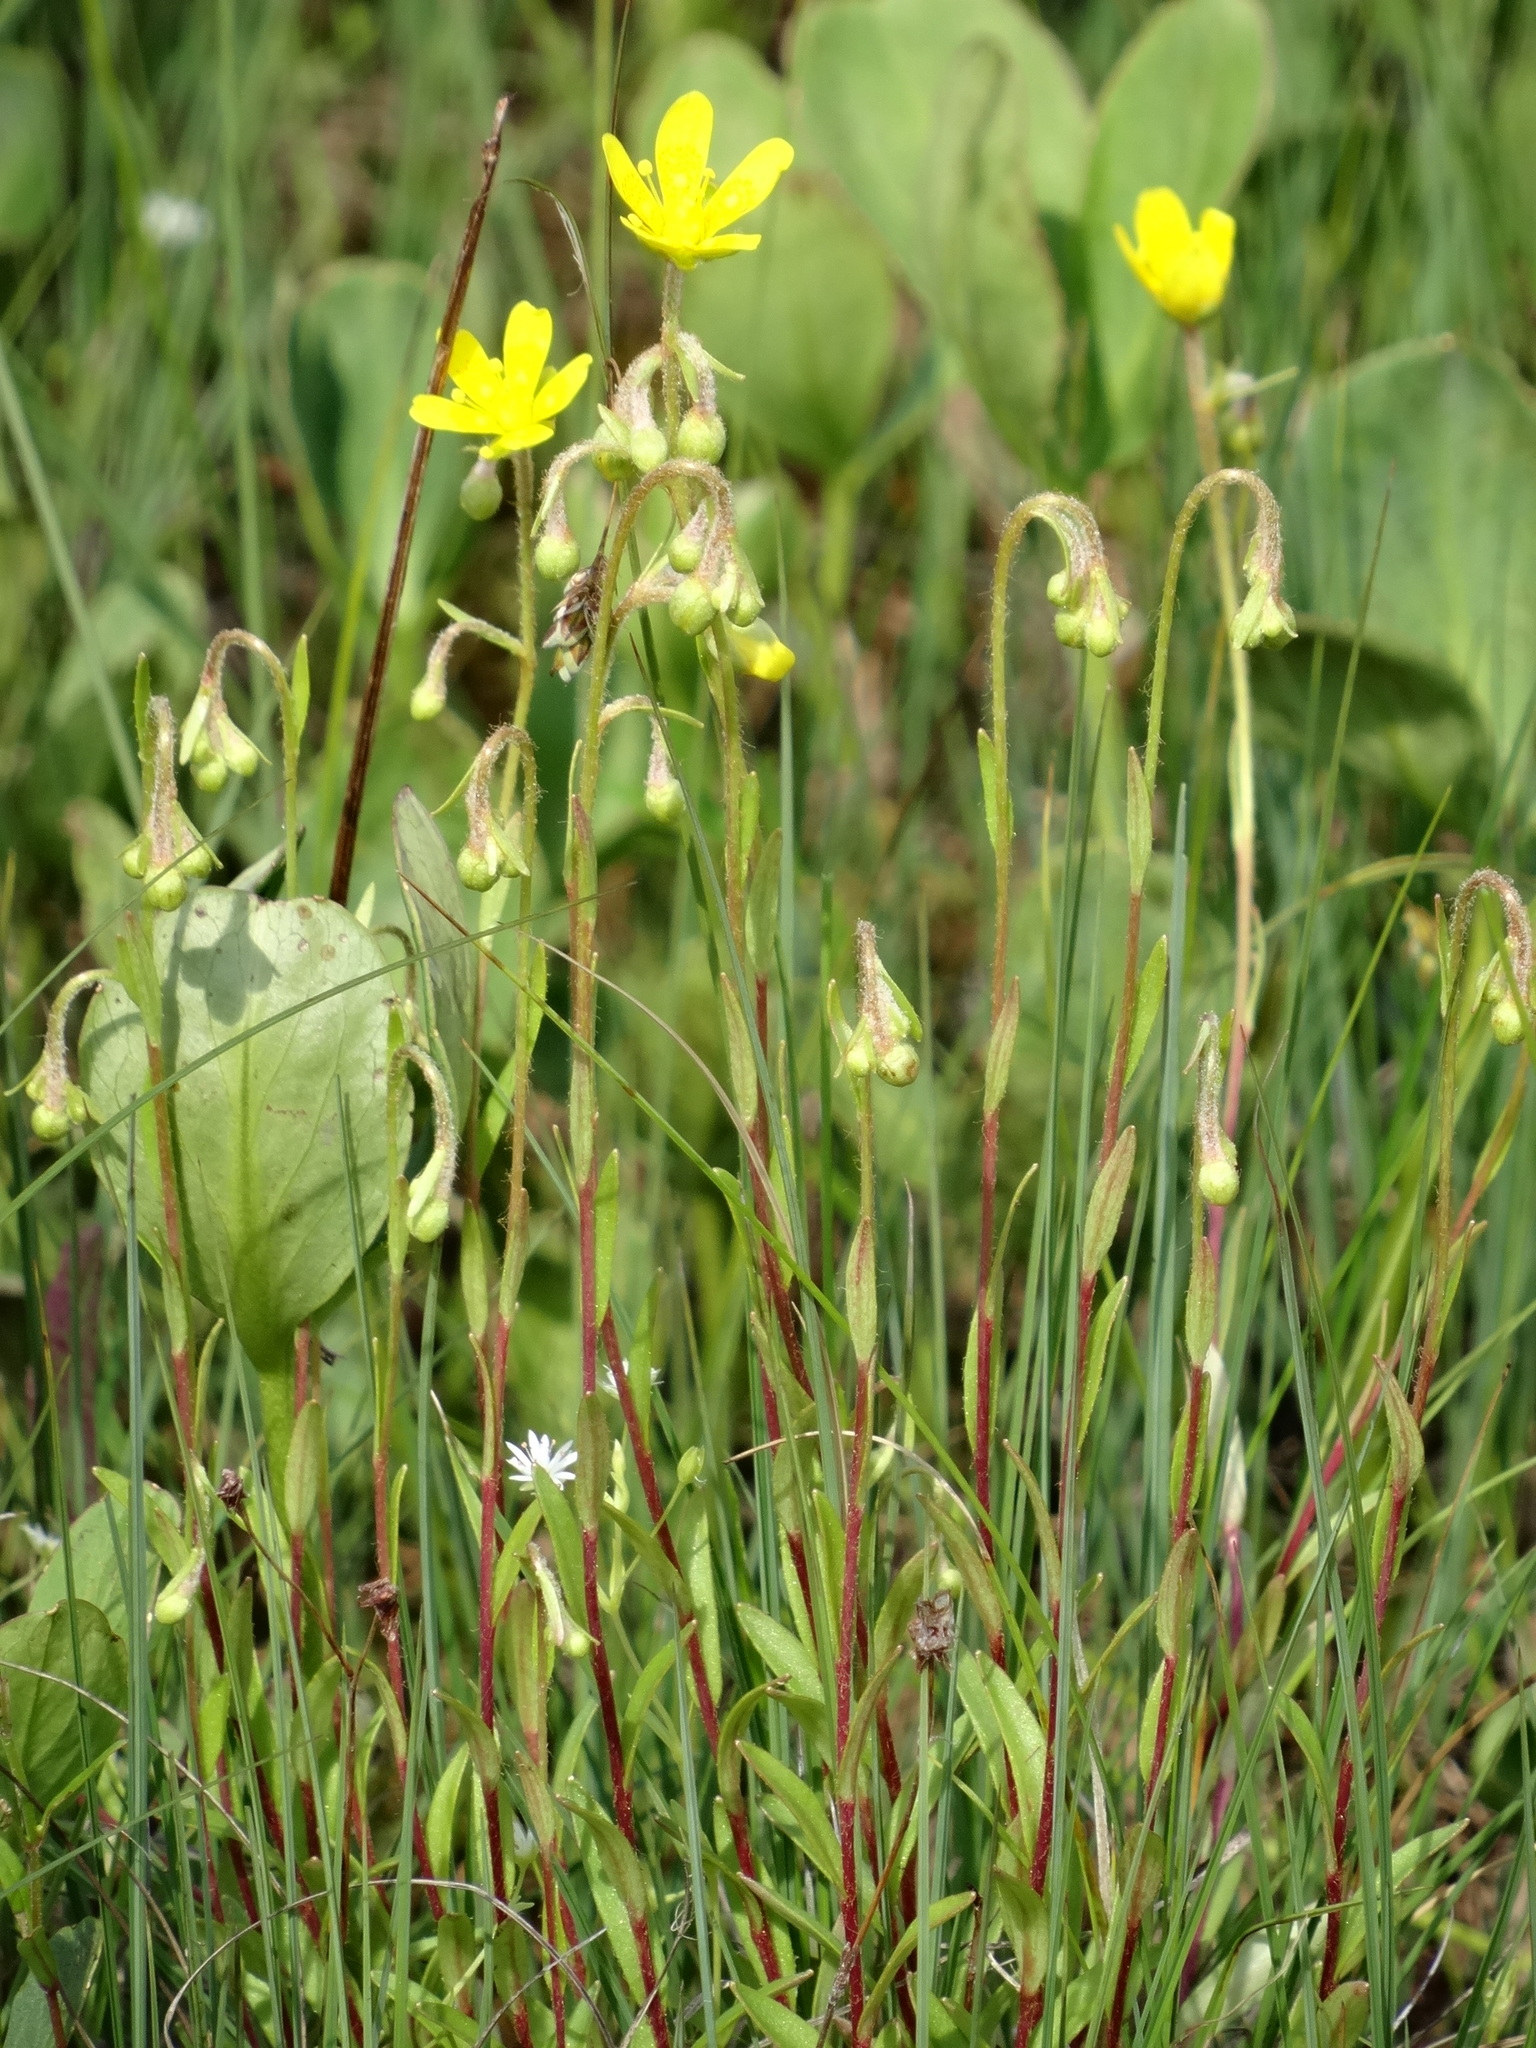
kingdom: Plantae
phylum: Tracheophyta
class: Magnoliopsida
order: Saxifragales
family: Saxifragaceae
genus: Saxifraga
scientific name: Saxifraga hirculus
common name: Yellow marsh saxifrage
